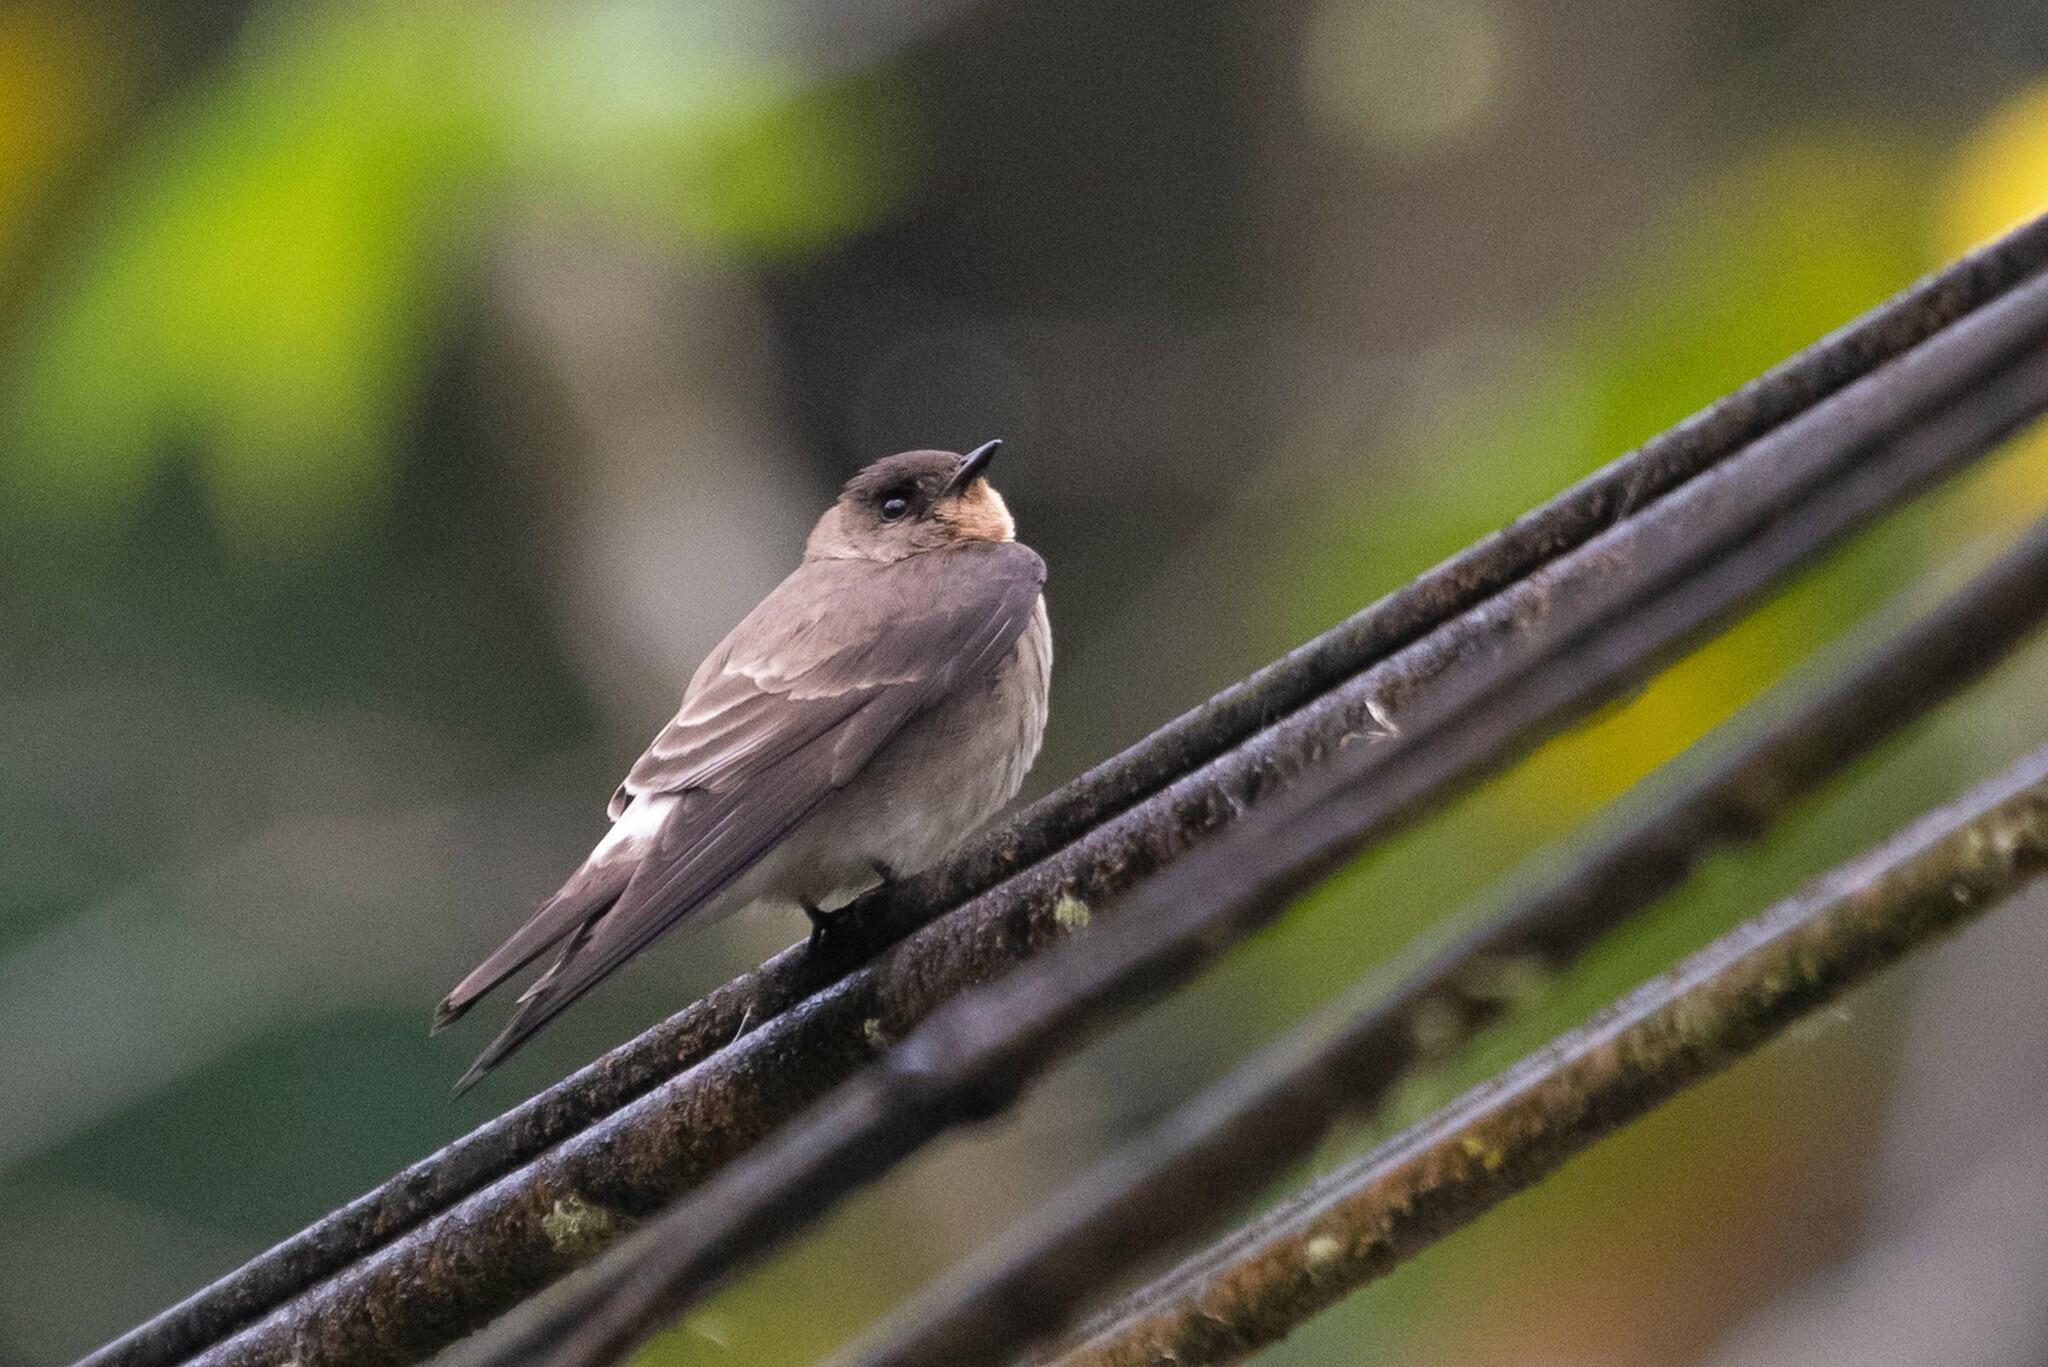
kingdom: Animalia
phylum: Chordata
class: Aves
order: Passeriformes
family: Hirundinidae
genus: Stelgidopteryx
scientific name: Stelgidopteryx ruficollis
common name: Southern rough-winged swallow
